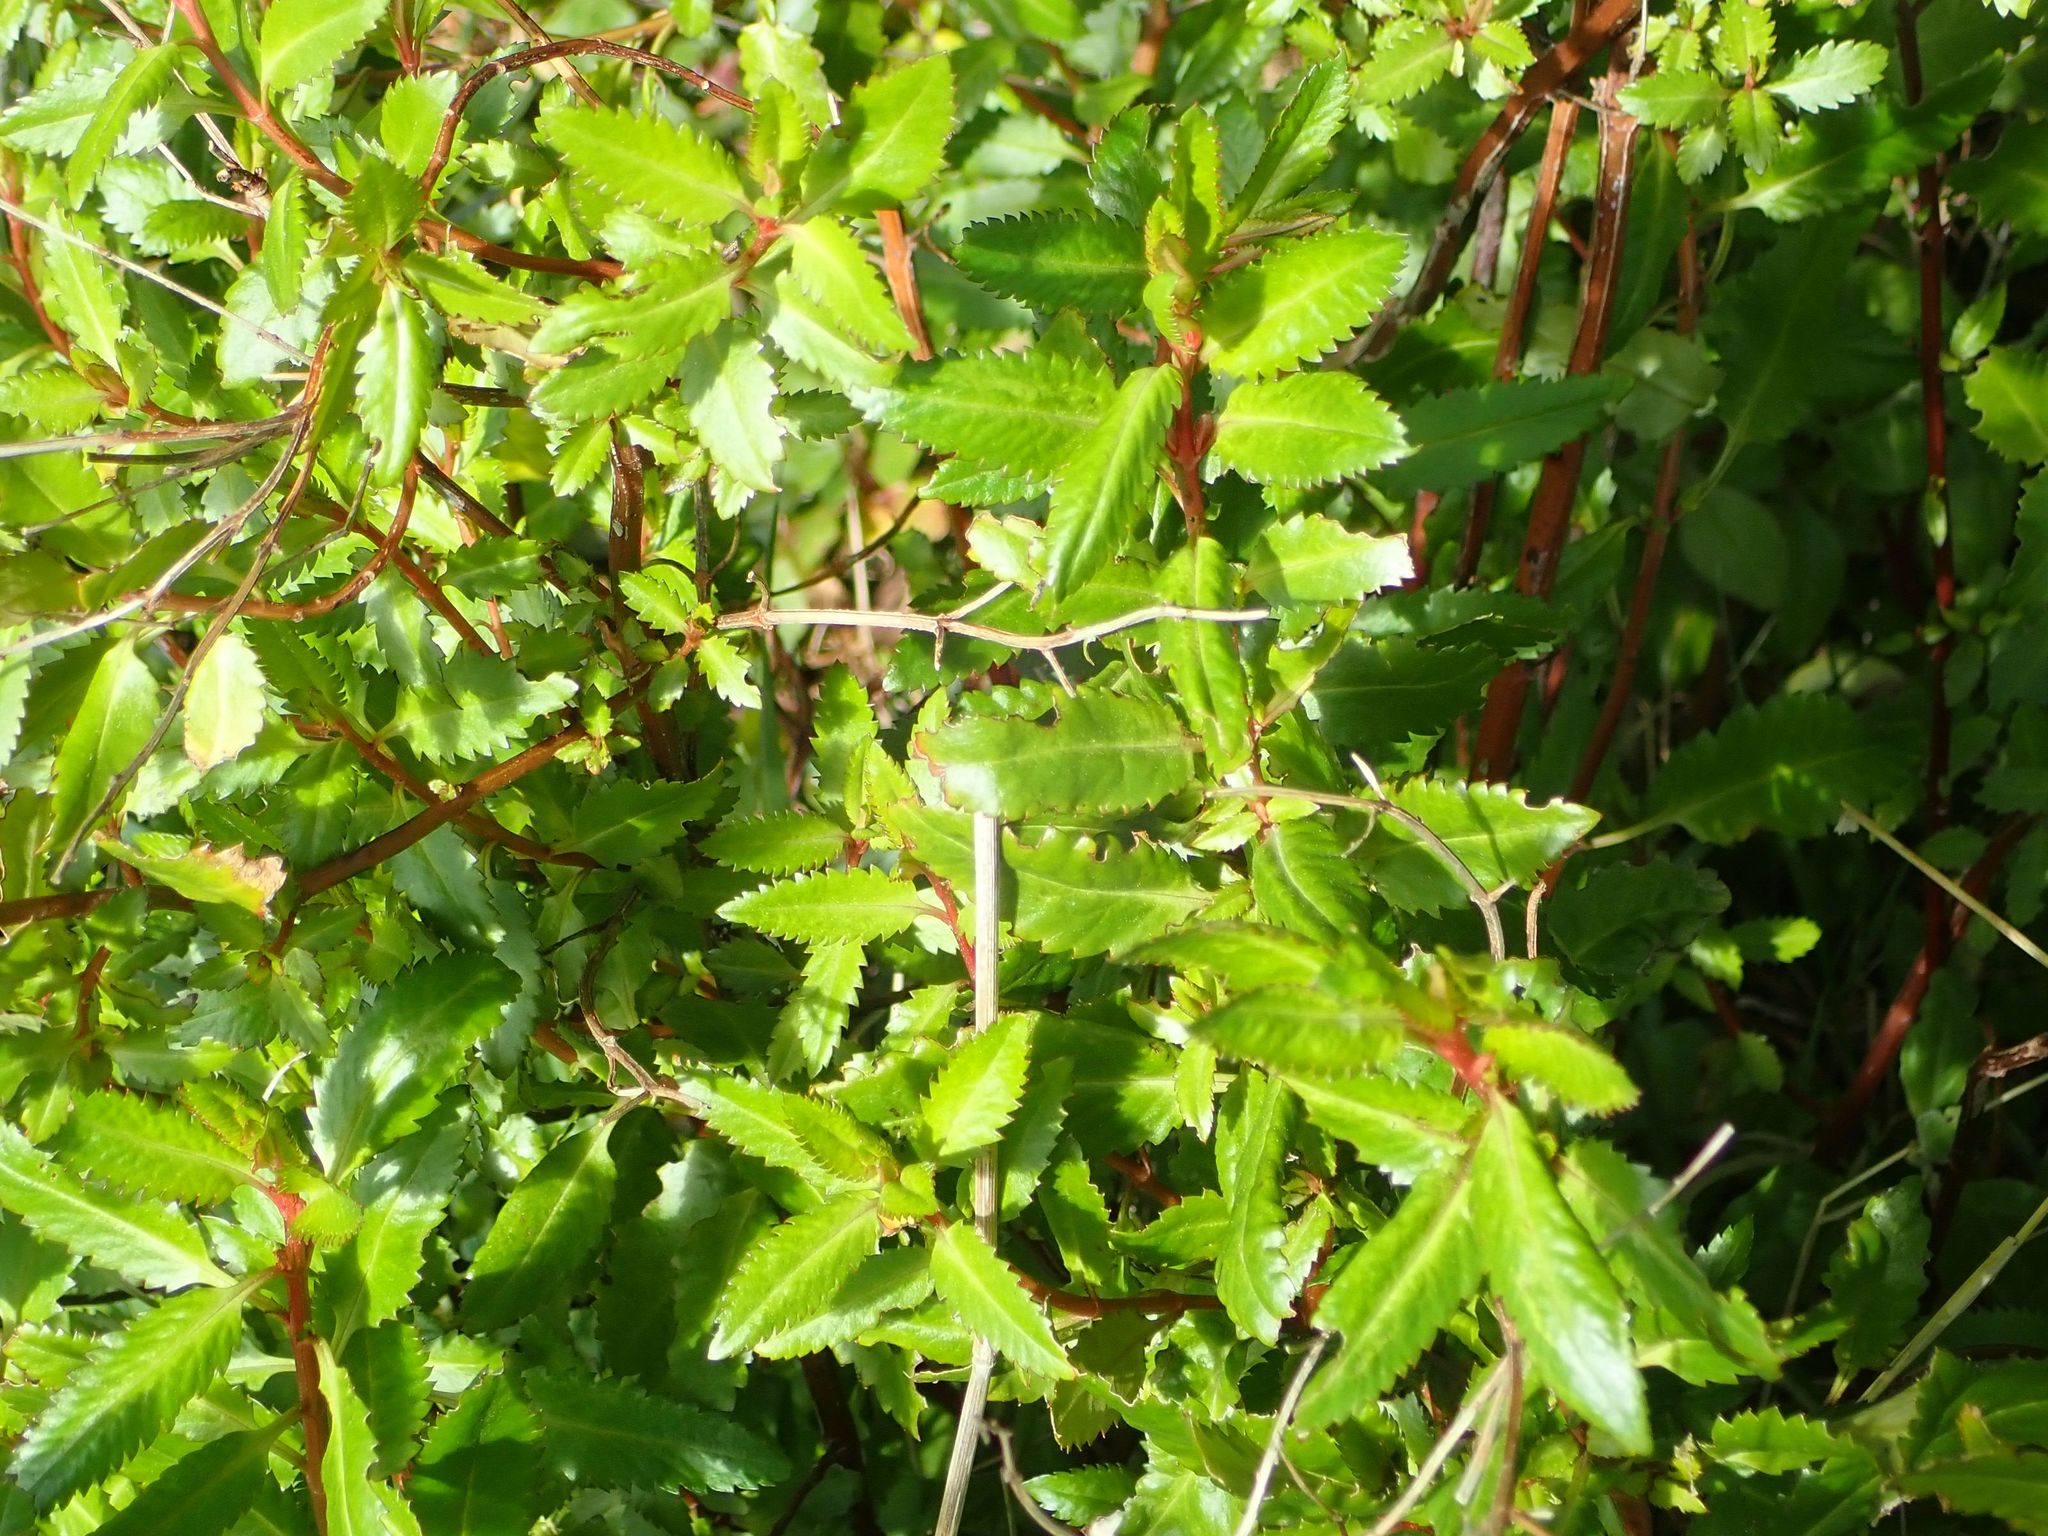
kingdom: Plantae
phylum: Tracheophyta
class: Magnoliopsida
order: Saxifragales
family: Haloragaceae
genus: Haloragis
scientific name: Haloragis erecta
